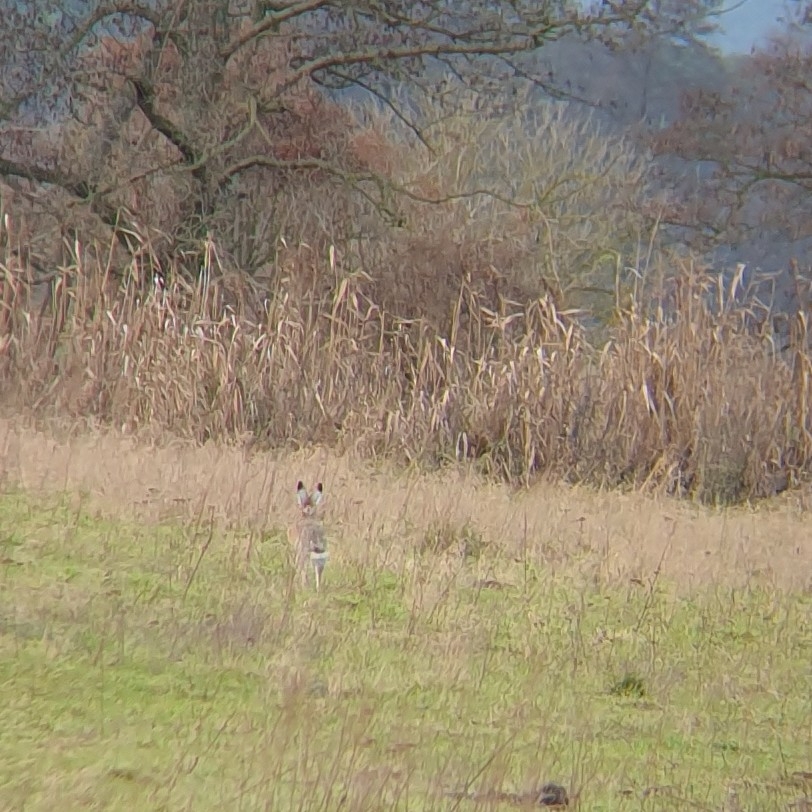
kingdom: Animalia
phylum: Chordata
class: Mammalia
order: Lagomorpha
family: Leporidae
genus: Lepus
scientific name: Lepus europaeus
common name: European hare
